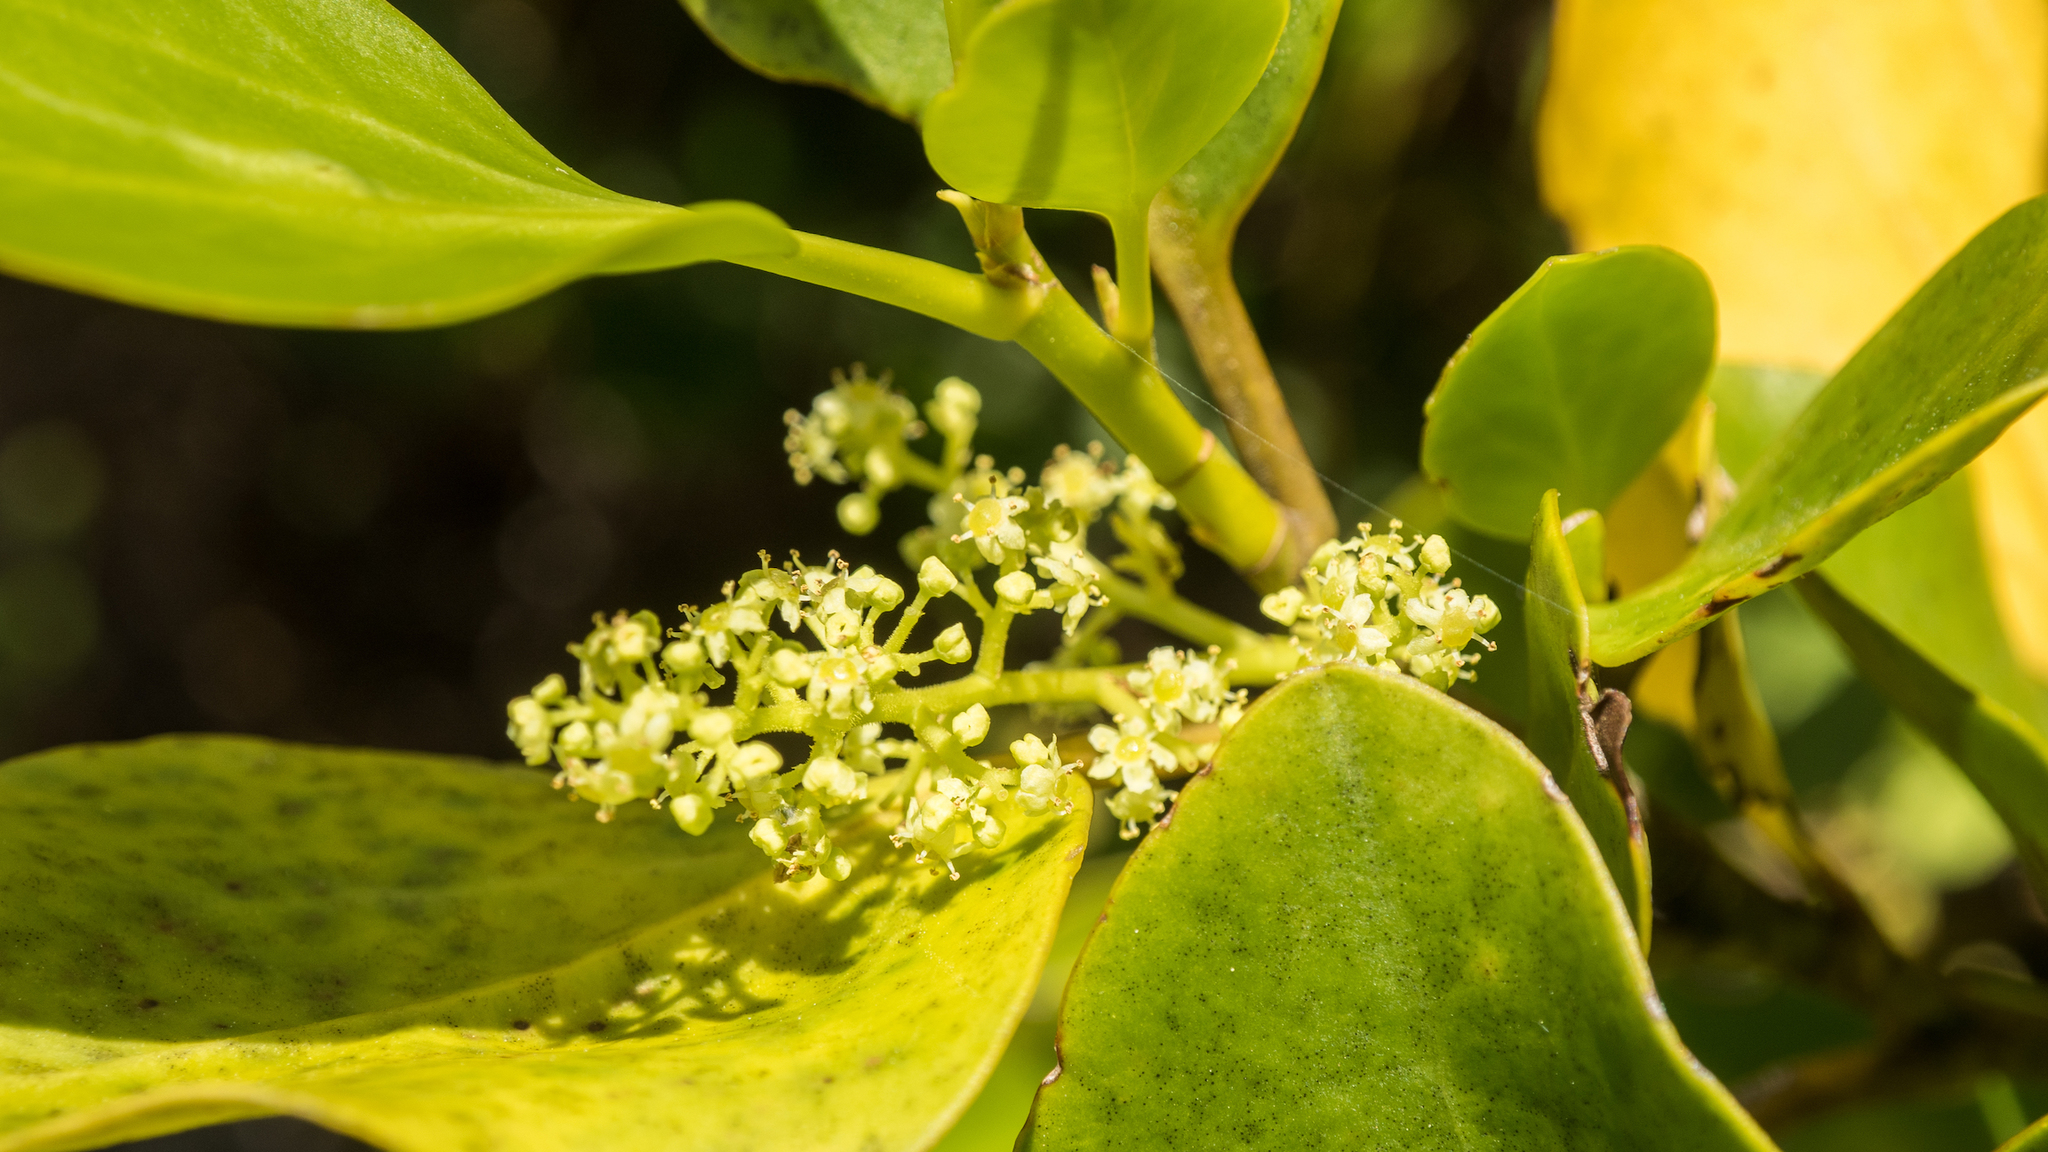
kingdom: Plantae
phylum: Tracheophyta
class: Magnoliopsida
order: Apiales
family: Griseliniaceae
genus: Griselinia
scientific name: Griselinia littoralis
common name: New zealand broadleaf
